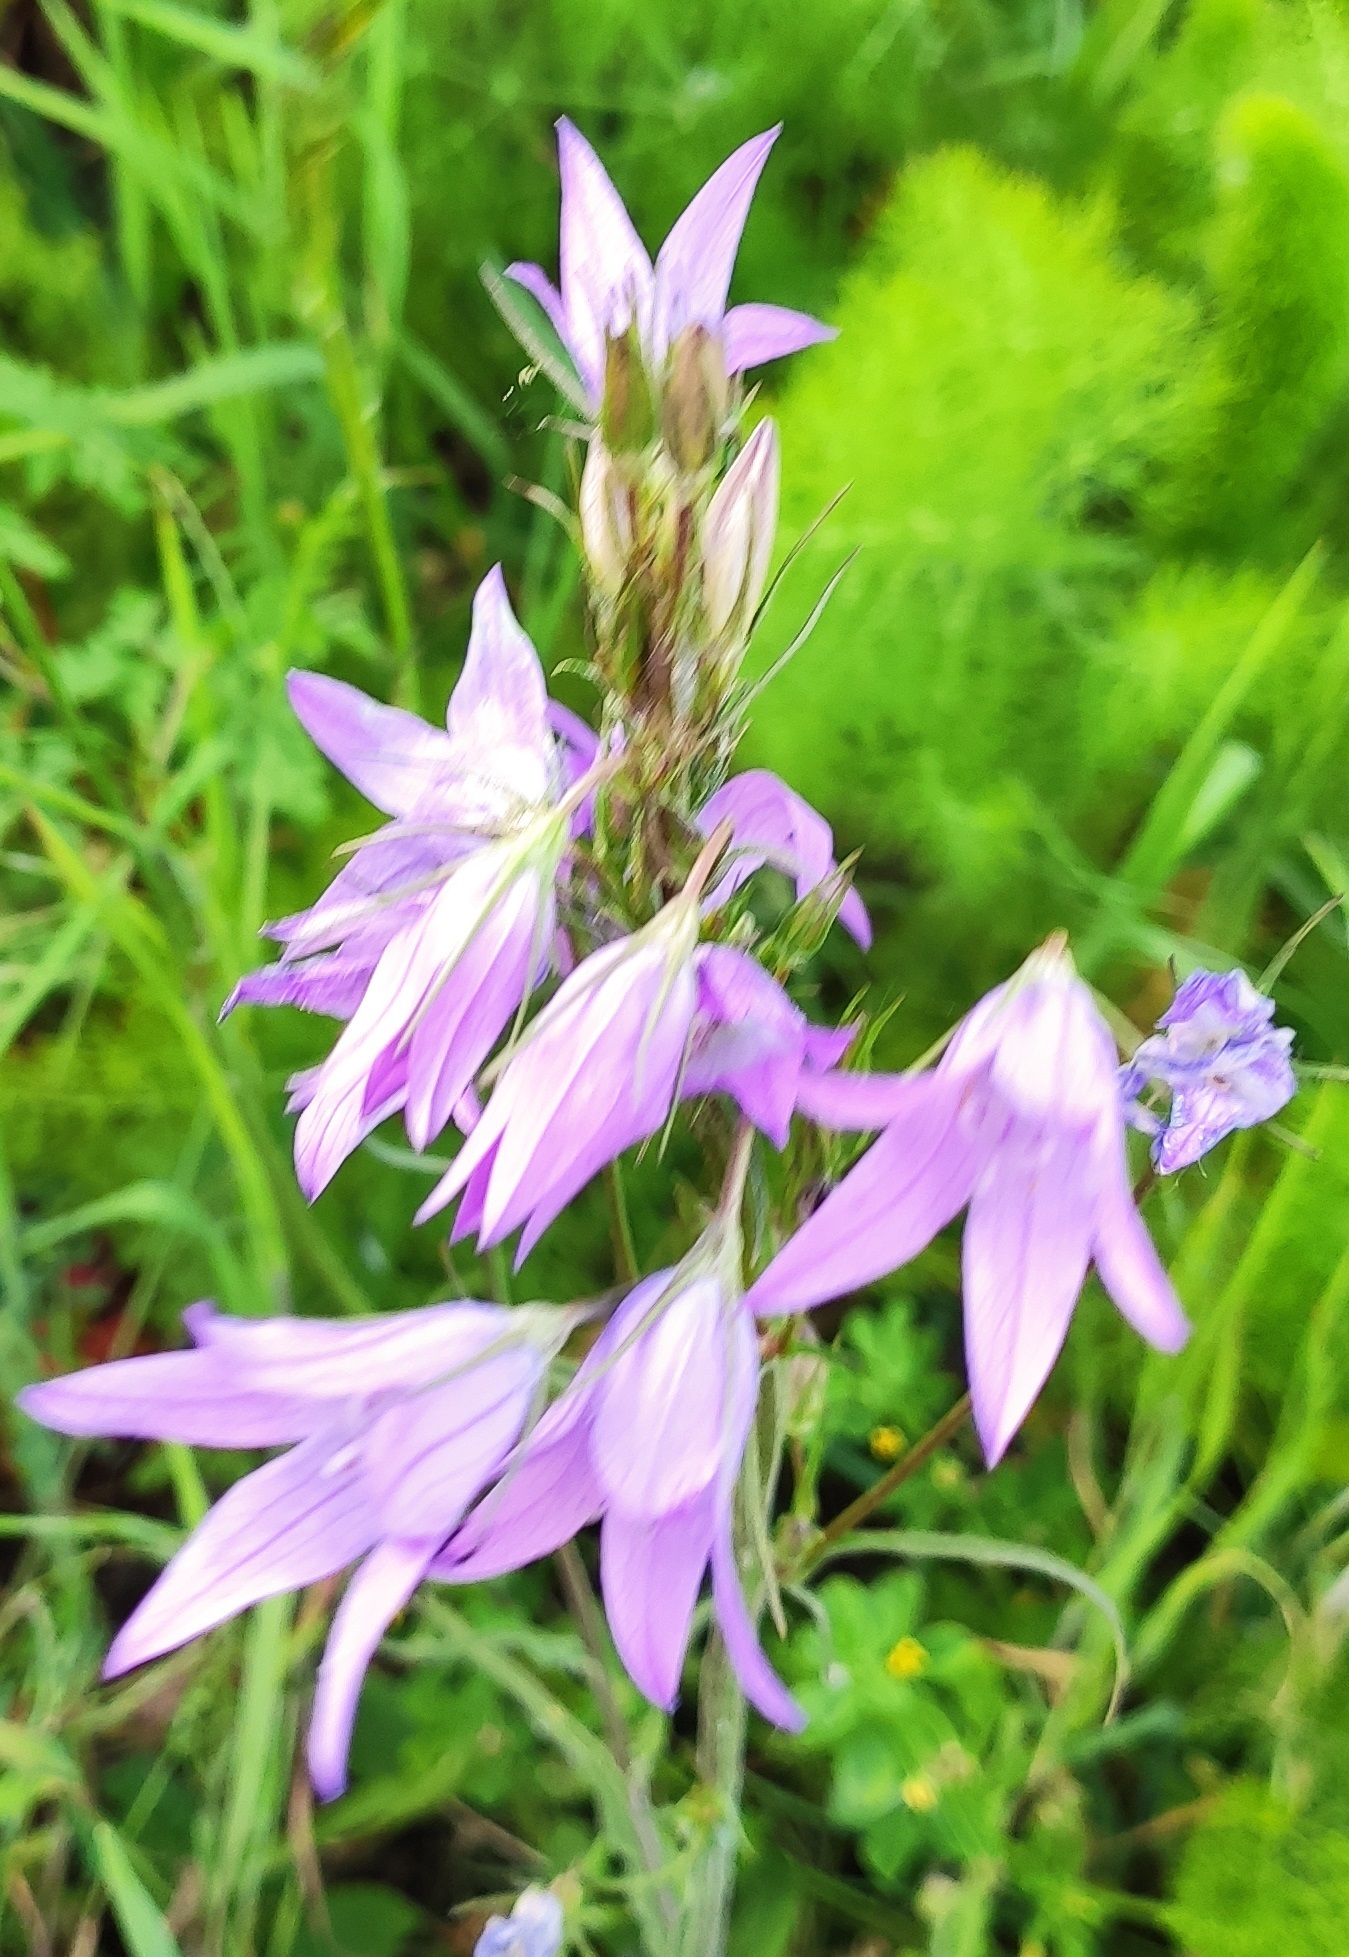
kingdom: Plantae
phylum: Tracheophyta
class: Magnoliopsida
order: Asterales
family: Campanulaceae
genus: Campanula
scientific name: Campanula rapunculus
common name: Rampion bellflower
